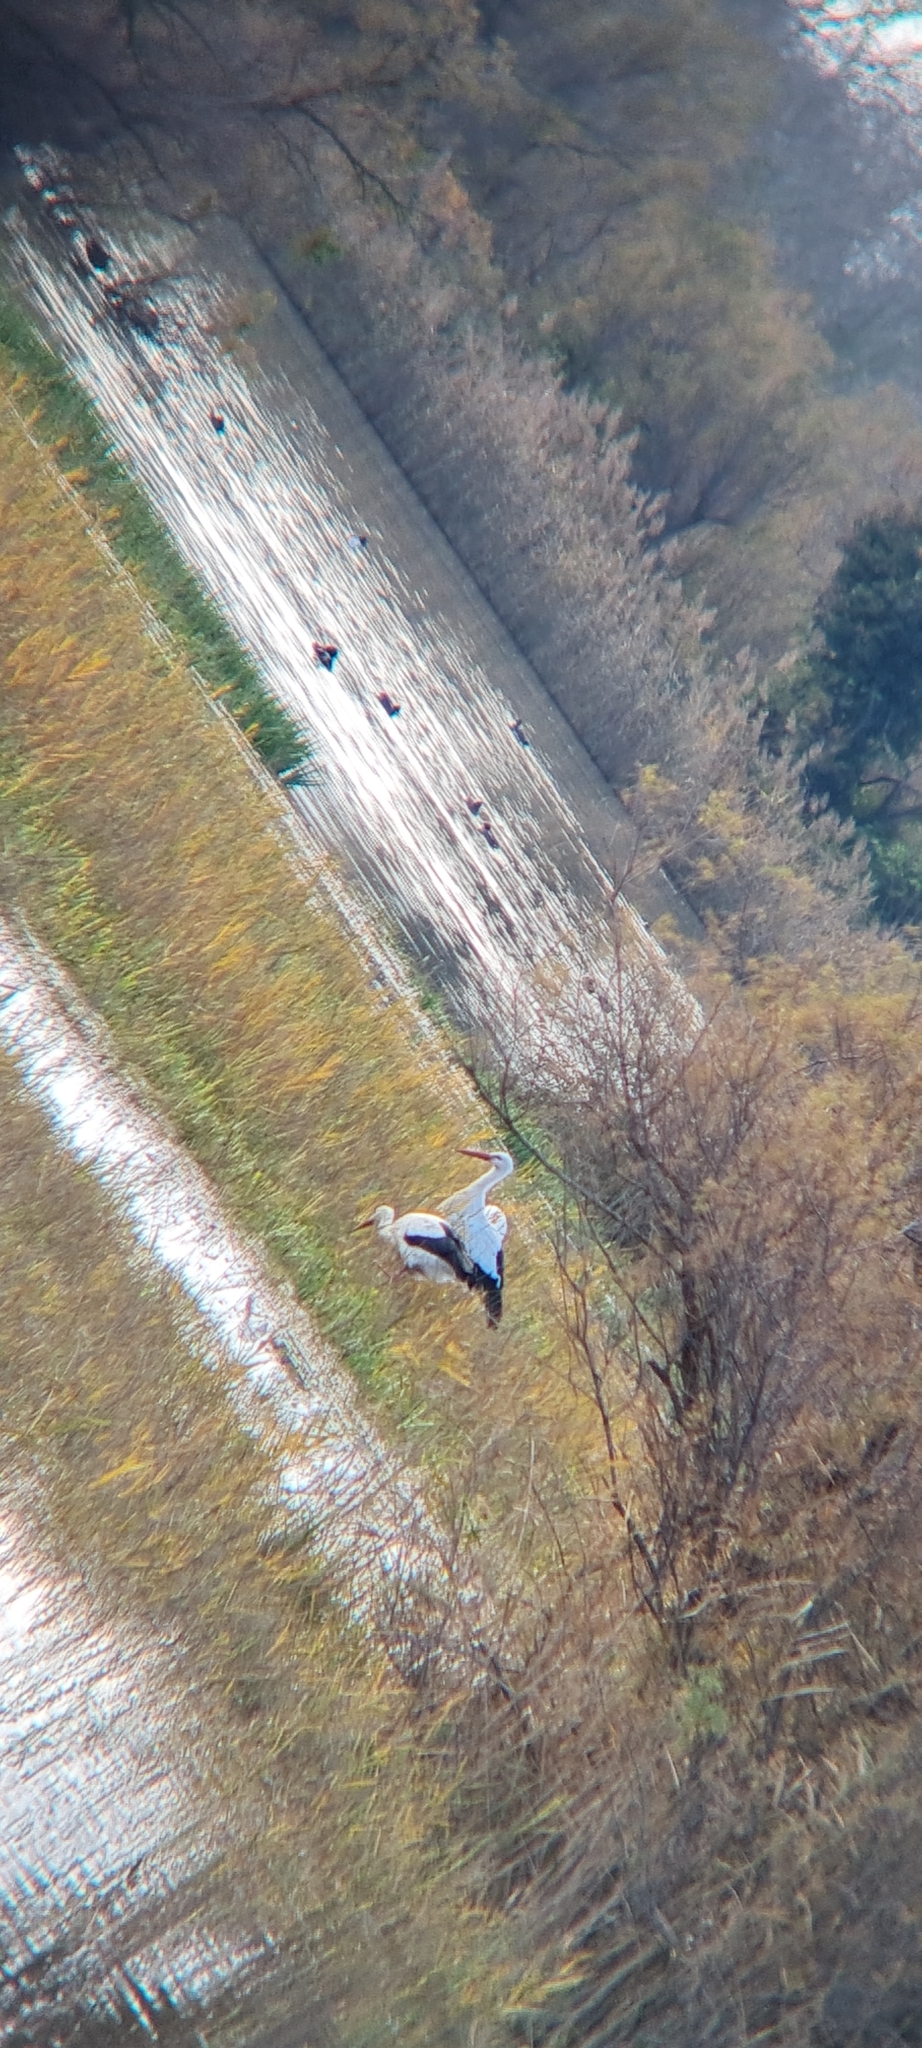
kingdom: Animalia
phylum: Chordata
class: Aves
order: Ciconiiformes
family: Ciconiidae
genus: Ciconia
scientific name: Ciconia ciconia
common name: White stork
